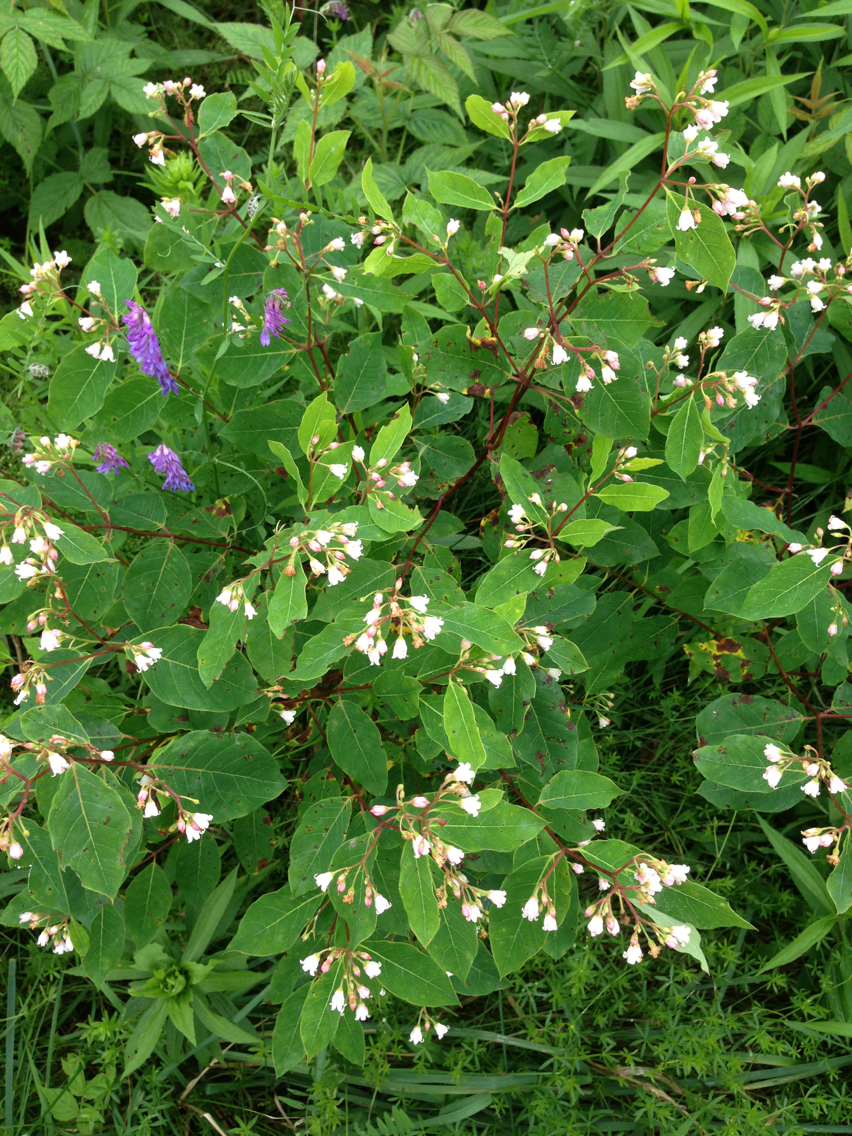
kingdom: Plantae
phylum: Tracheophyta
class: Magnoliopsida
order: Gentianales
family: Apocynaceae
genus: Apocynum
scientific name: Apocynum androsaemifolium
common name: Spreading dogbane
